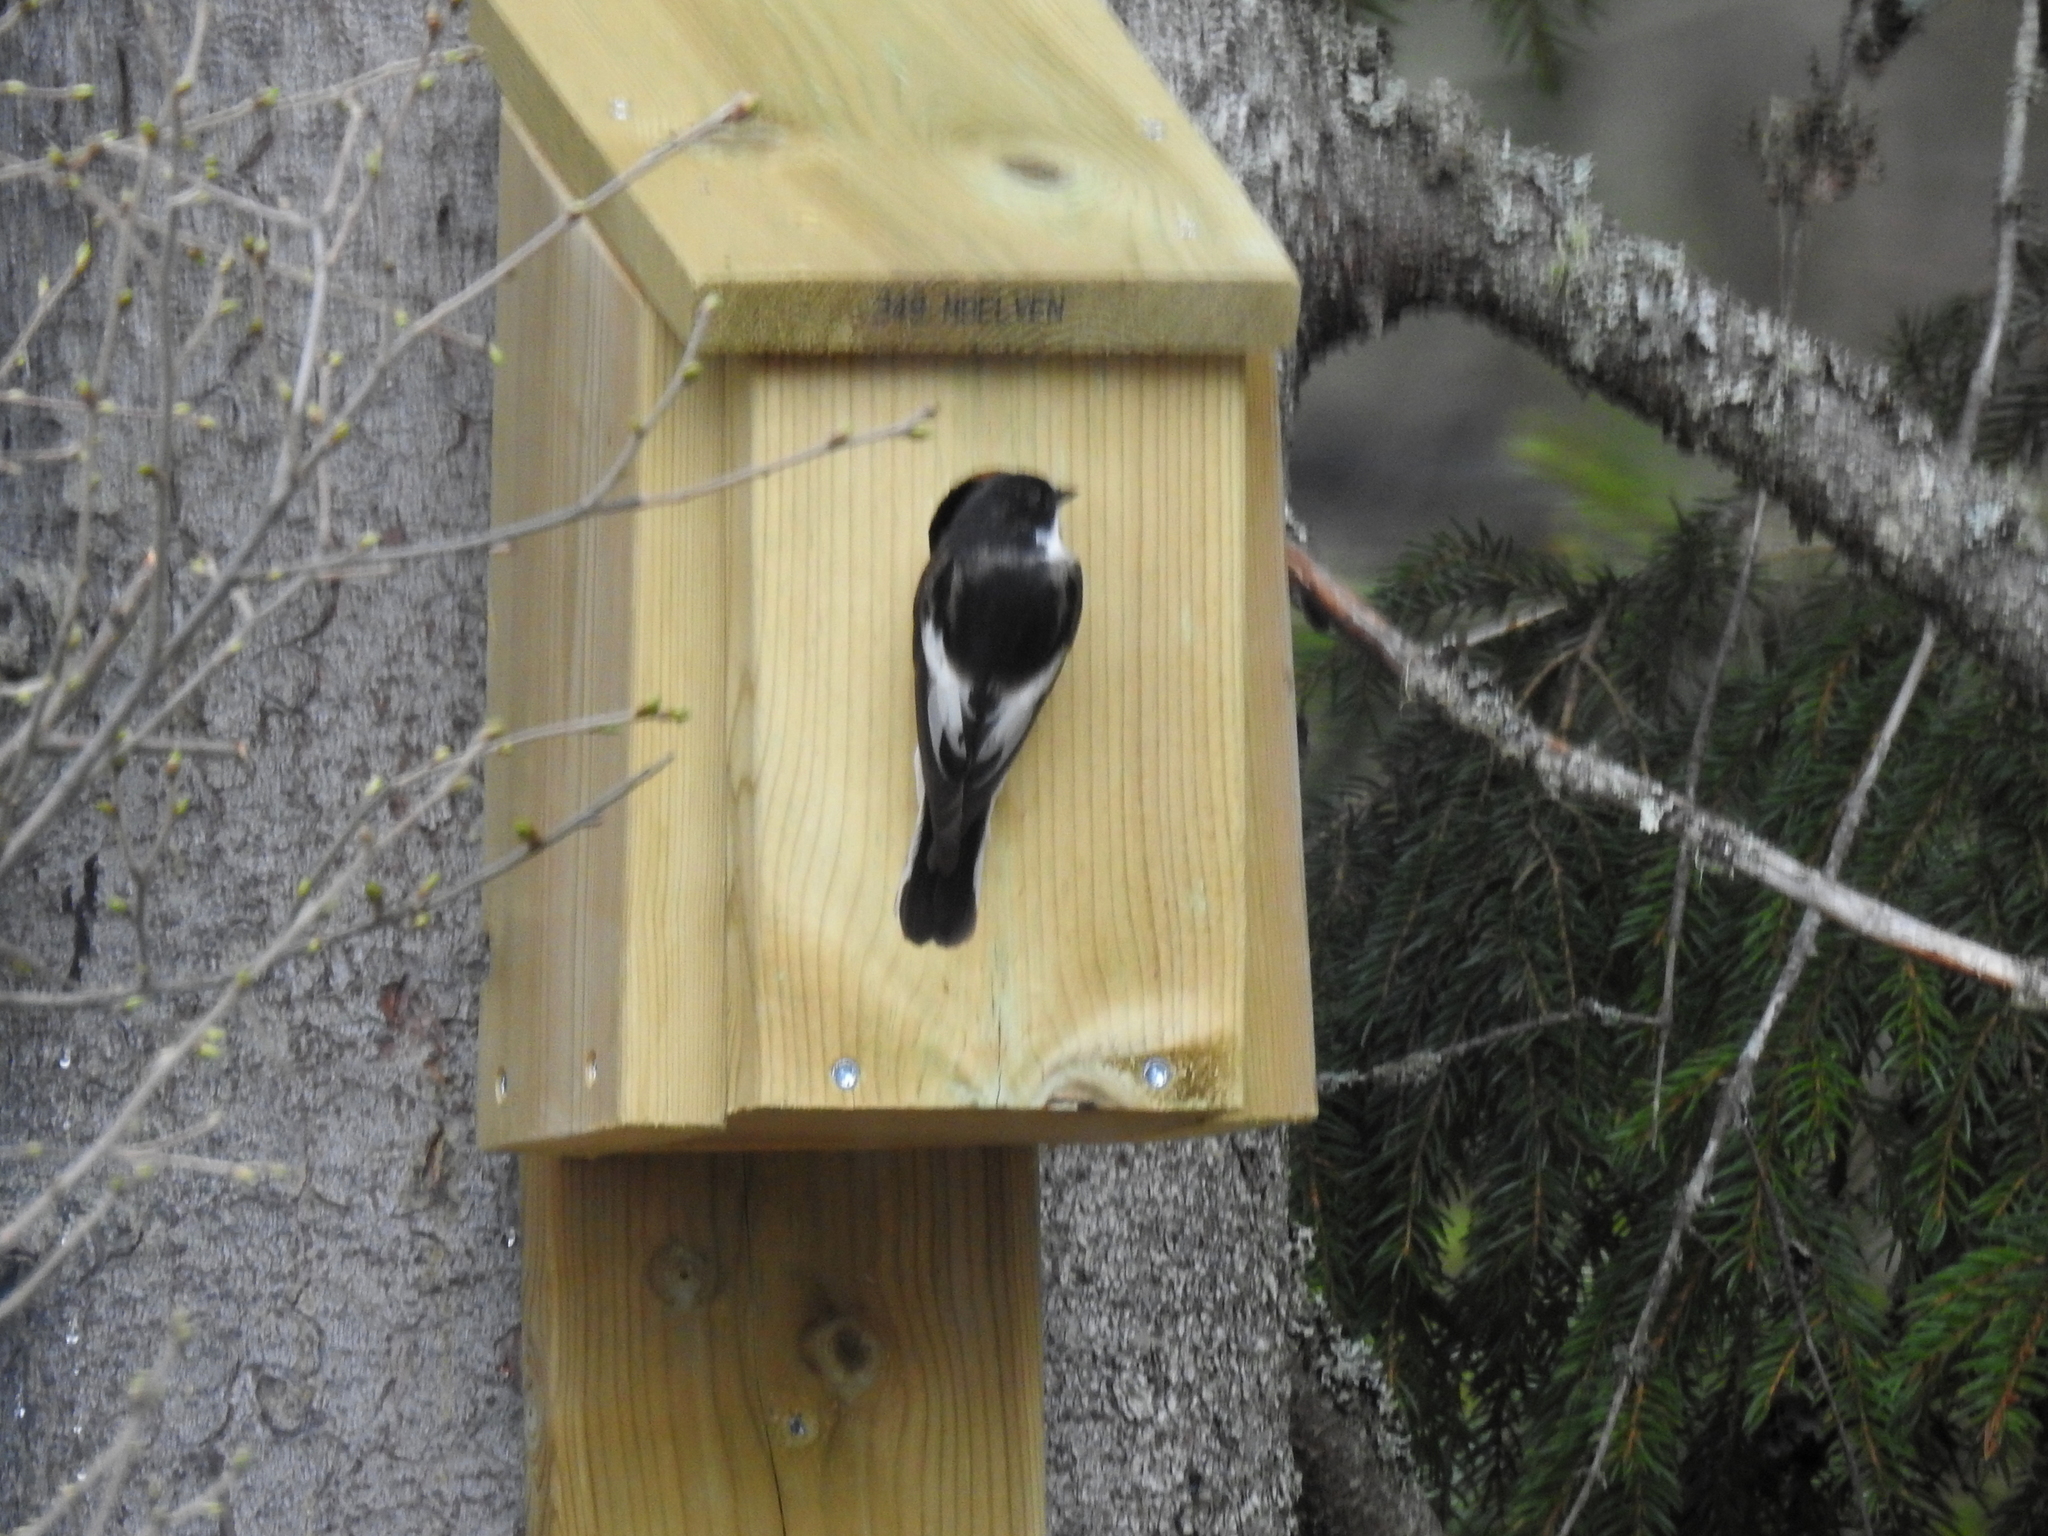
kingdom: Animalia
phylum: Chordata
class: Aves
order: Passeriformes
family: Muscicapidae
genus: Ficedula
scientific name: Ficedula hypoleuca
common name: European pied flycatcher
